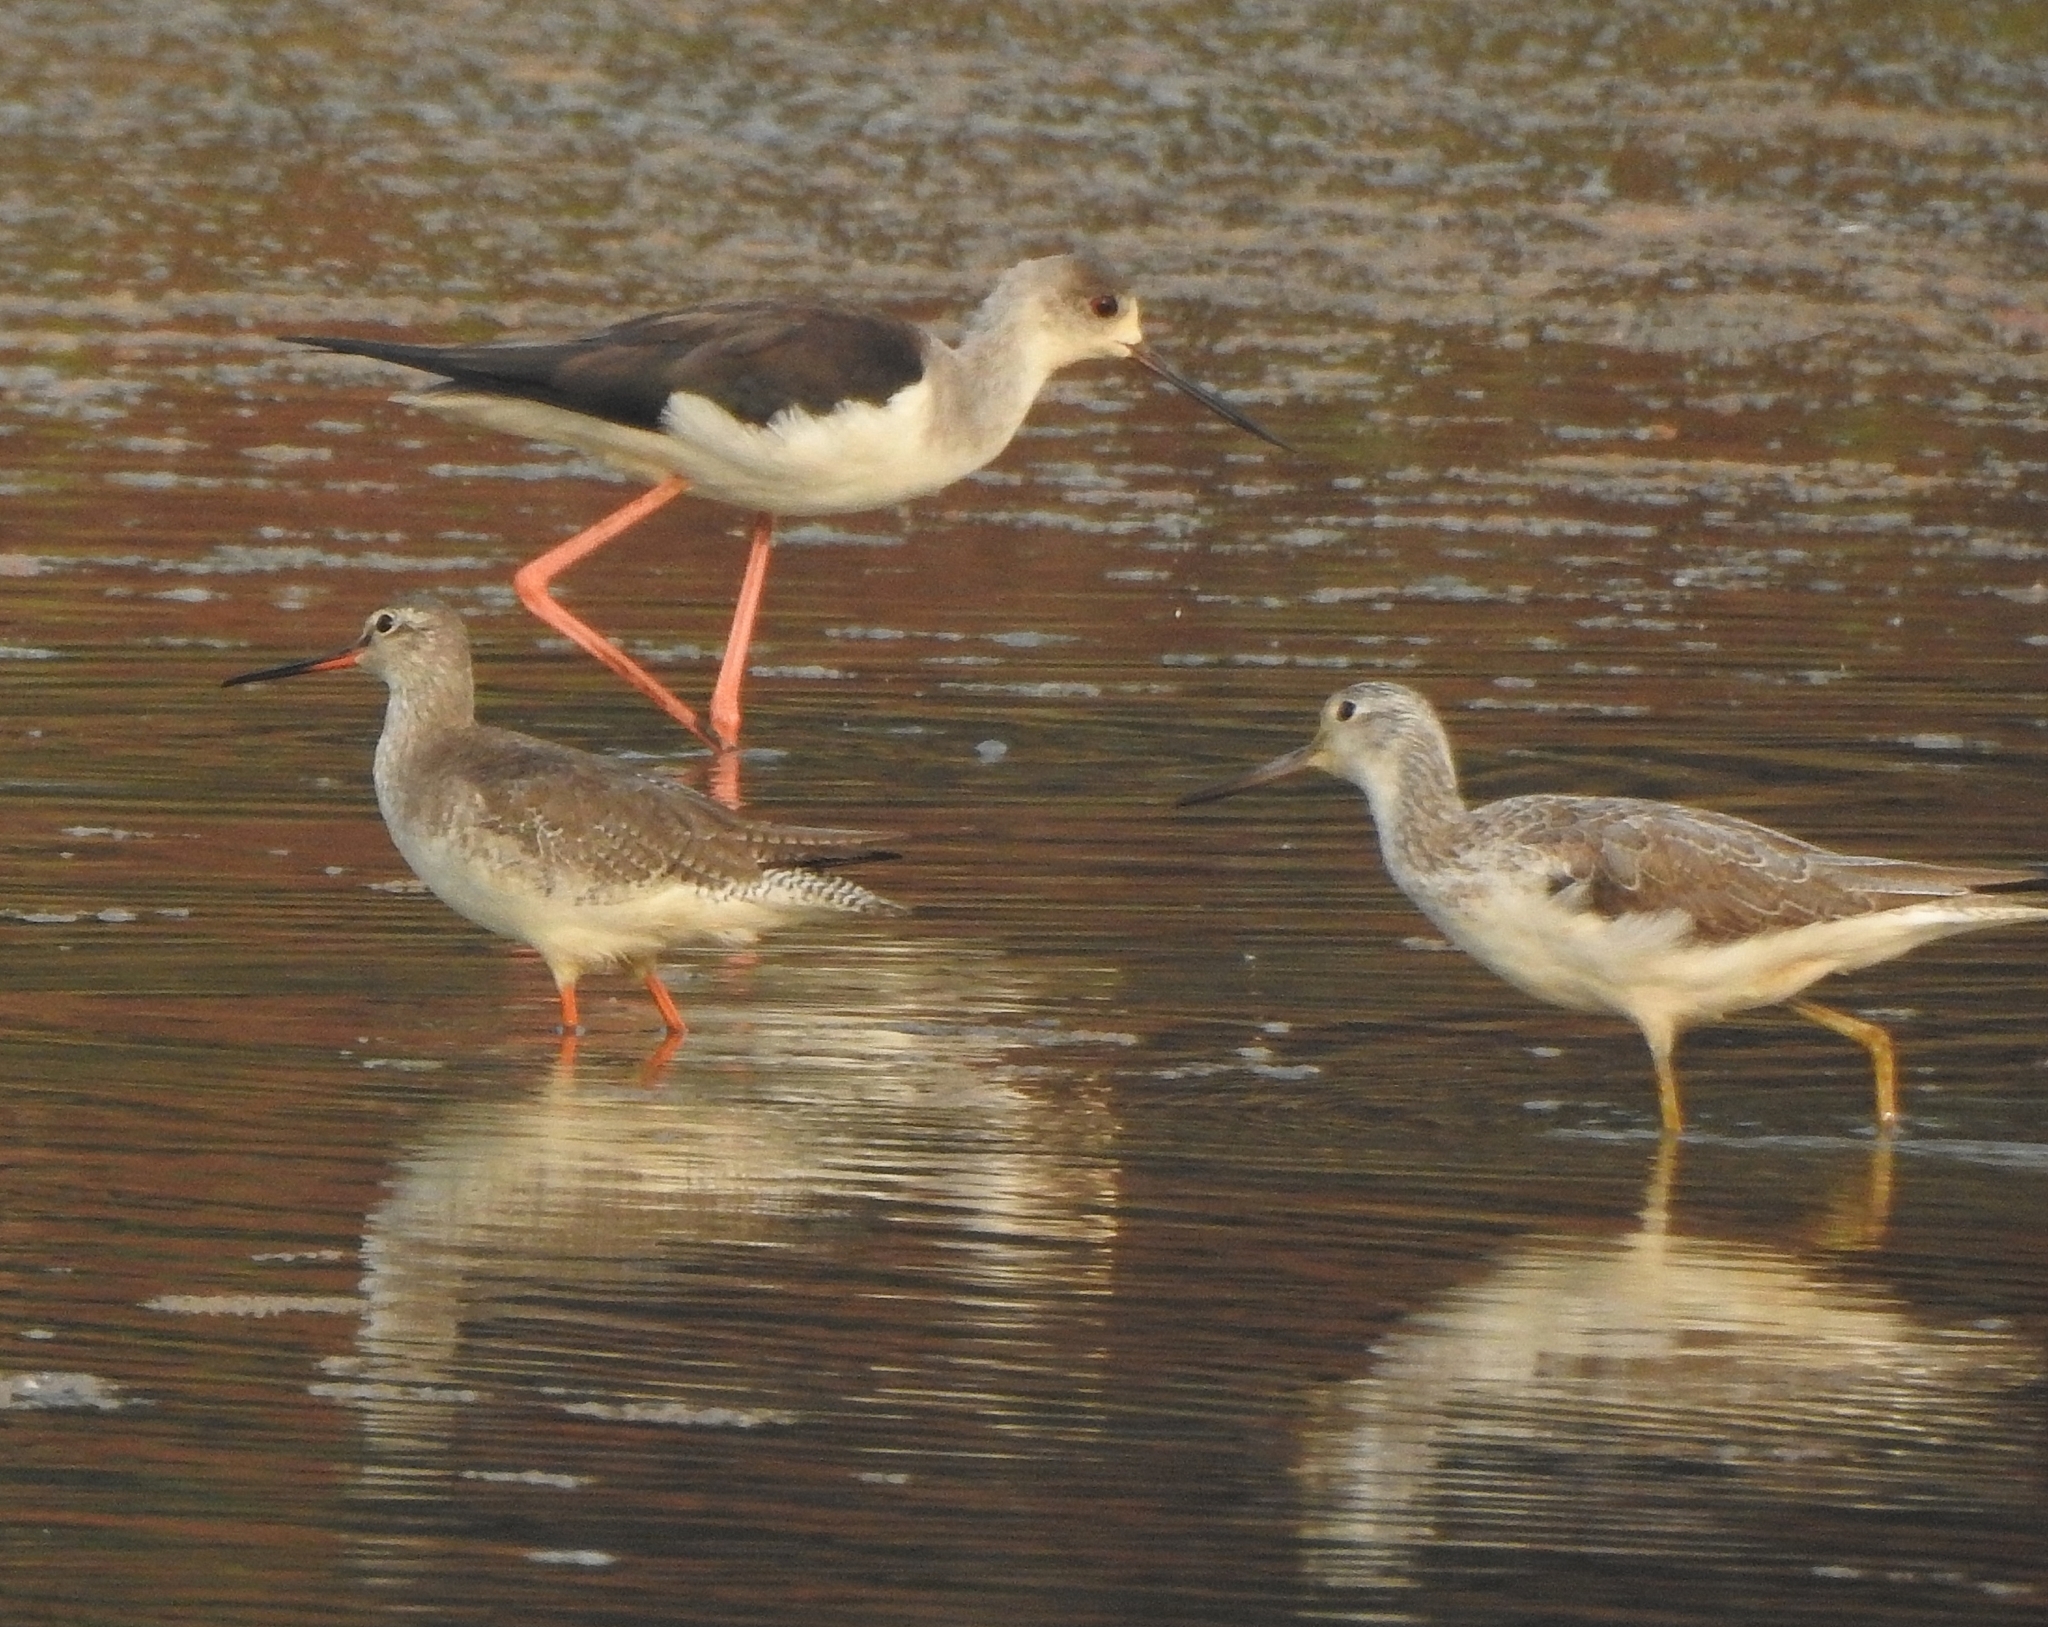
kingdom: Animalia
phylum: Chordata
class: Aves
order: Charadriiformes
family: Scolopacidae
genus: Tringa
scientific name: Tringa nebularia
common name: Common greenshank
